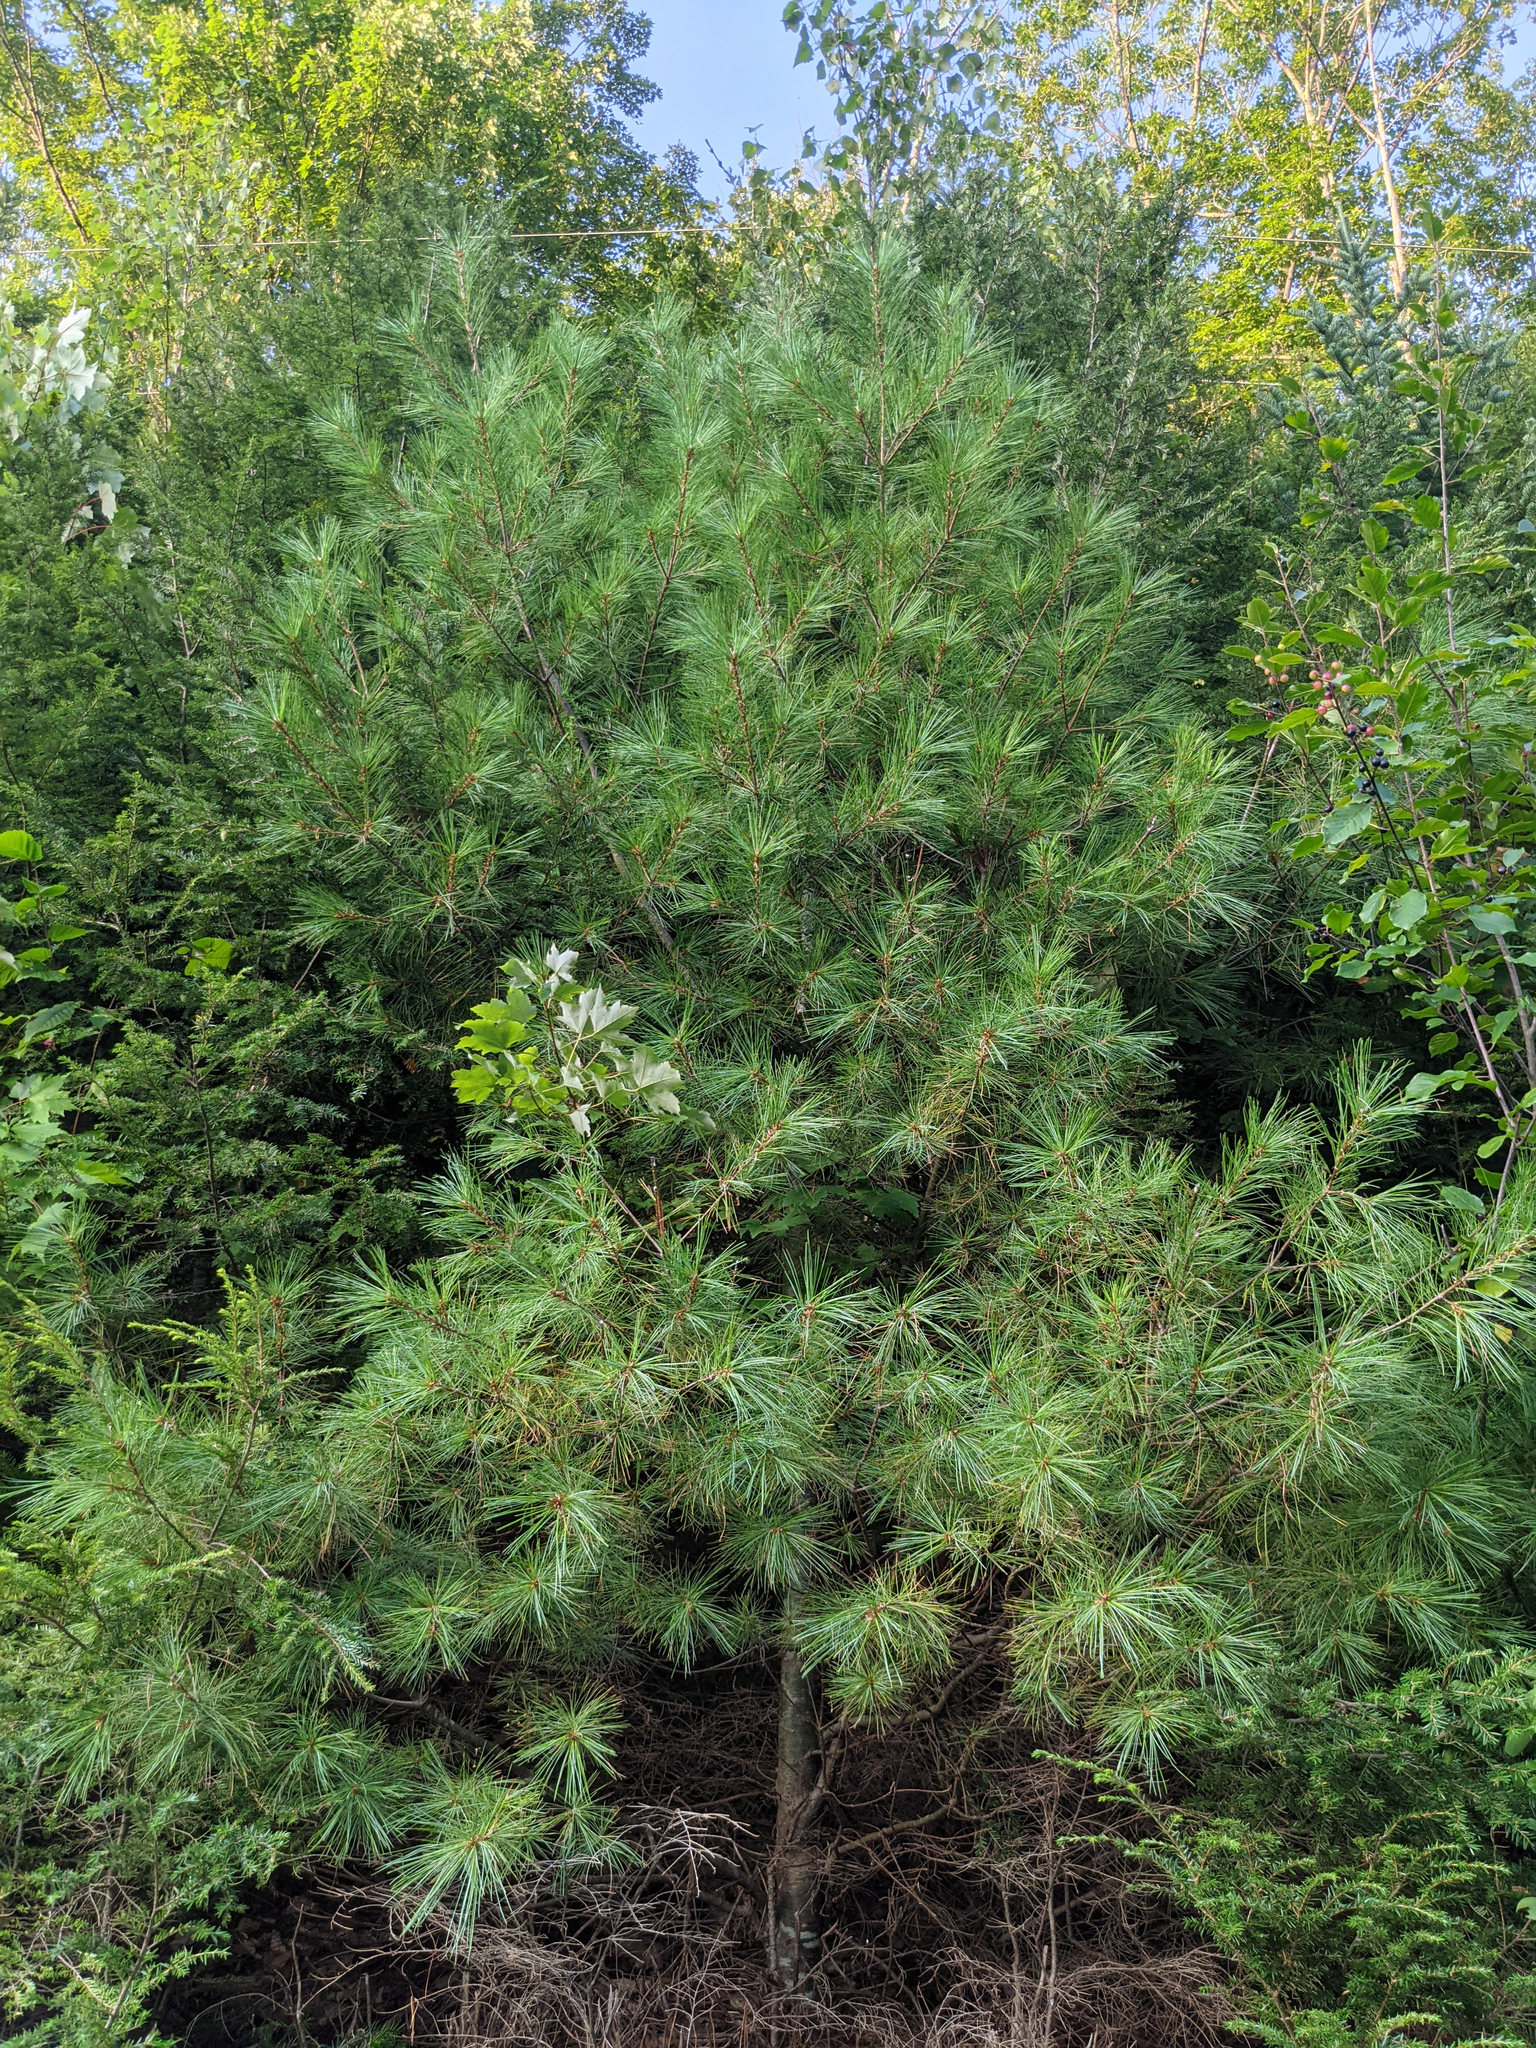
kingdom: Plantae
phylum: Tracheophyta
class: Pinopsida
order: Pinales
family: Pinaceae
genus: Pinus
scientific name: Pinus strobus
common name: Weymouth pine
